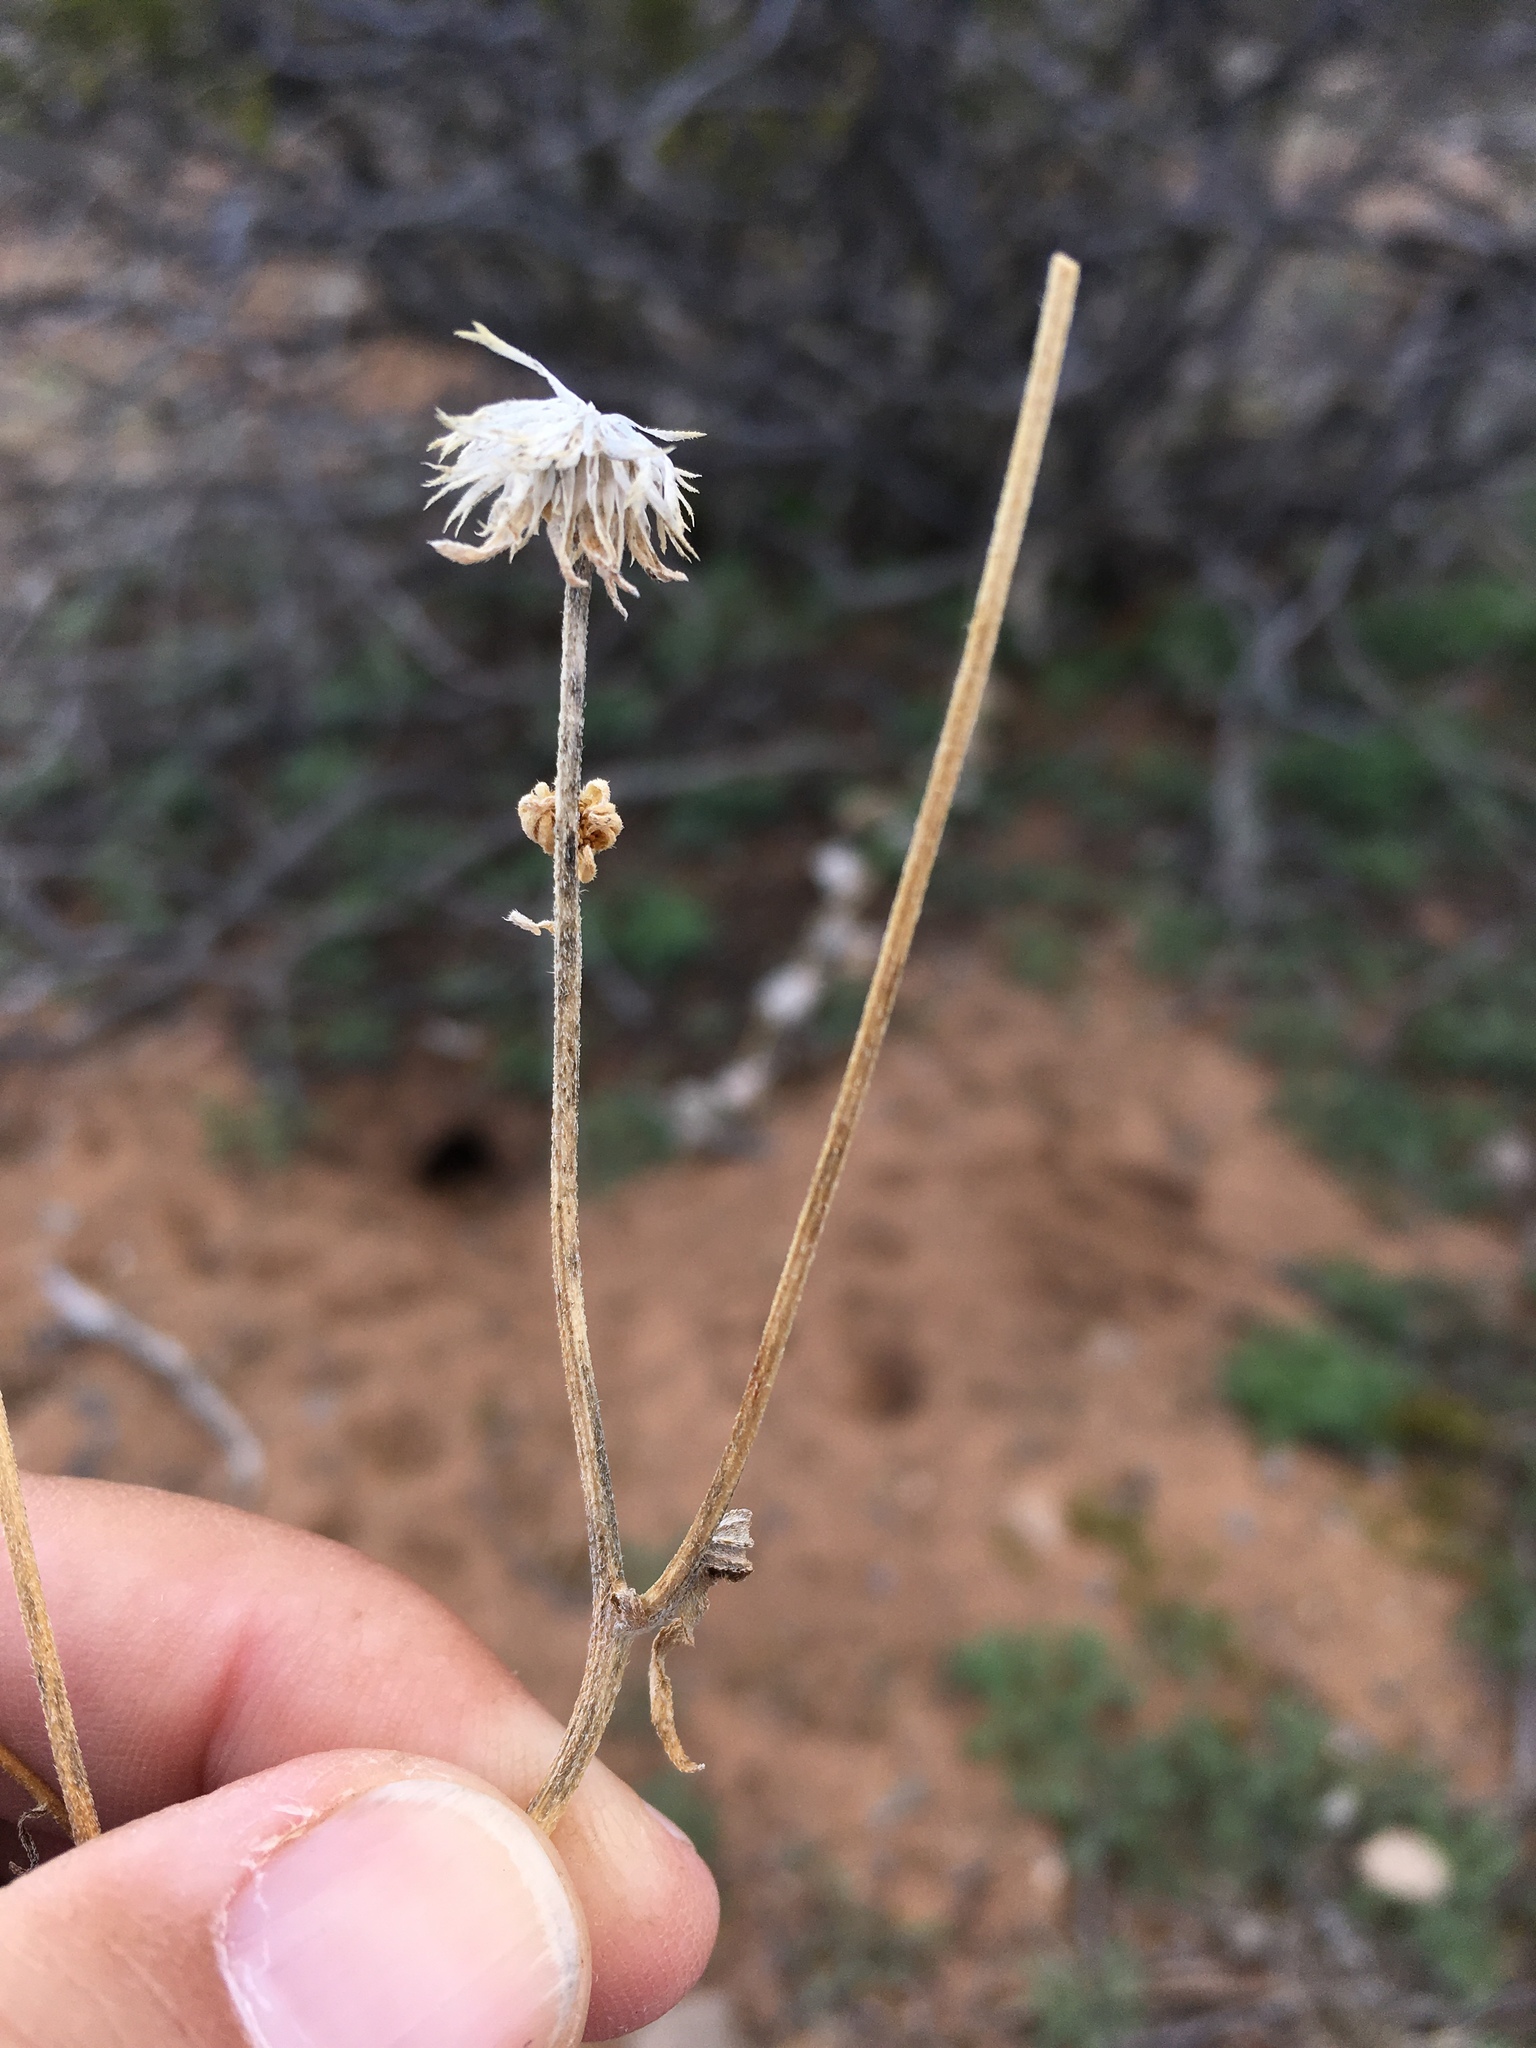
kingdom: Plantae
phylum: Tracheophyta
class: Magnoliopsida
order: Asterales
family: Asteraceae
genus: Verbesina
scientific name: Verbesina encelioides
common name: Golden crownbeard
